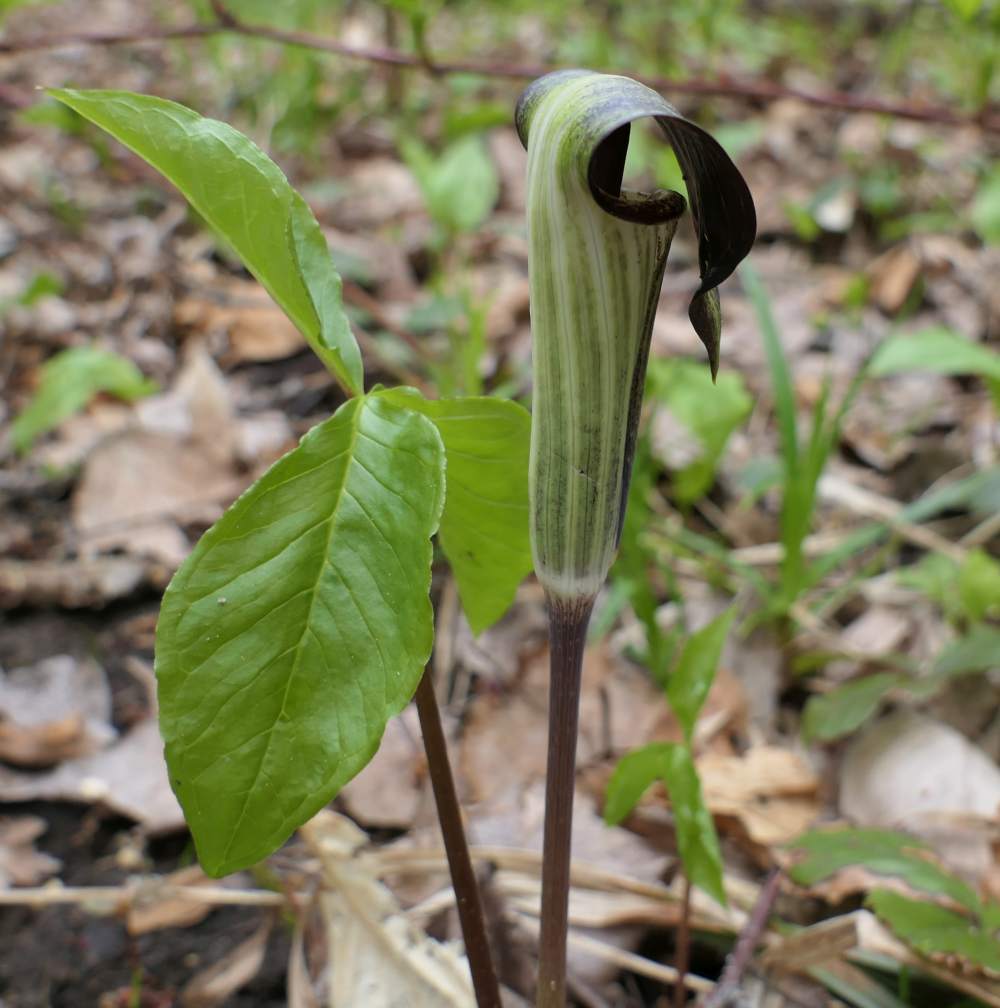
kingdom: Plantae
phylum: Tracheophyta
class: Liliopsida
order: Alismatales
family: Araceae
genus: Arisaema
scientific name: Arisaema triphyllum
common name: Jack-in-the-pulpit
